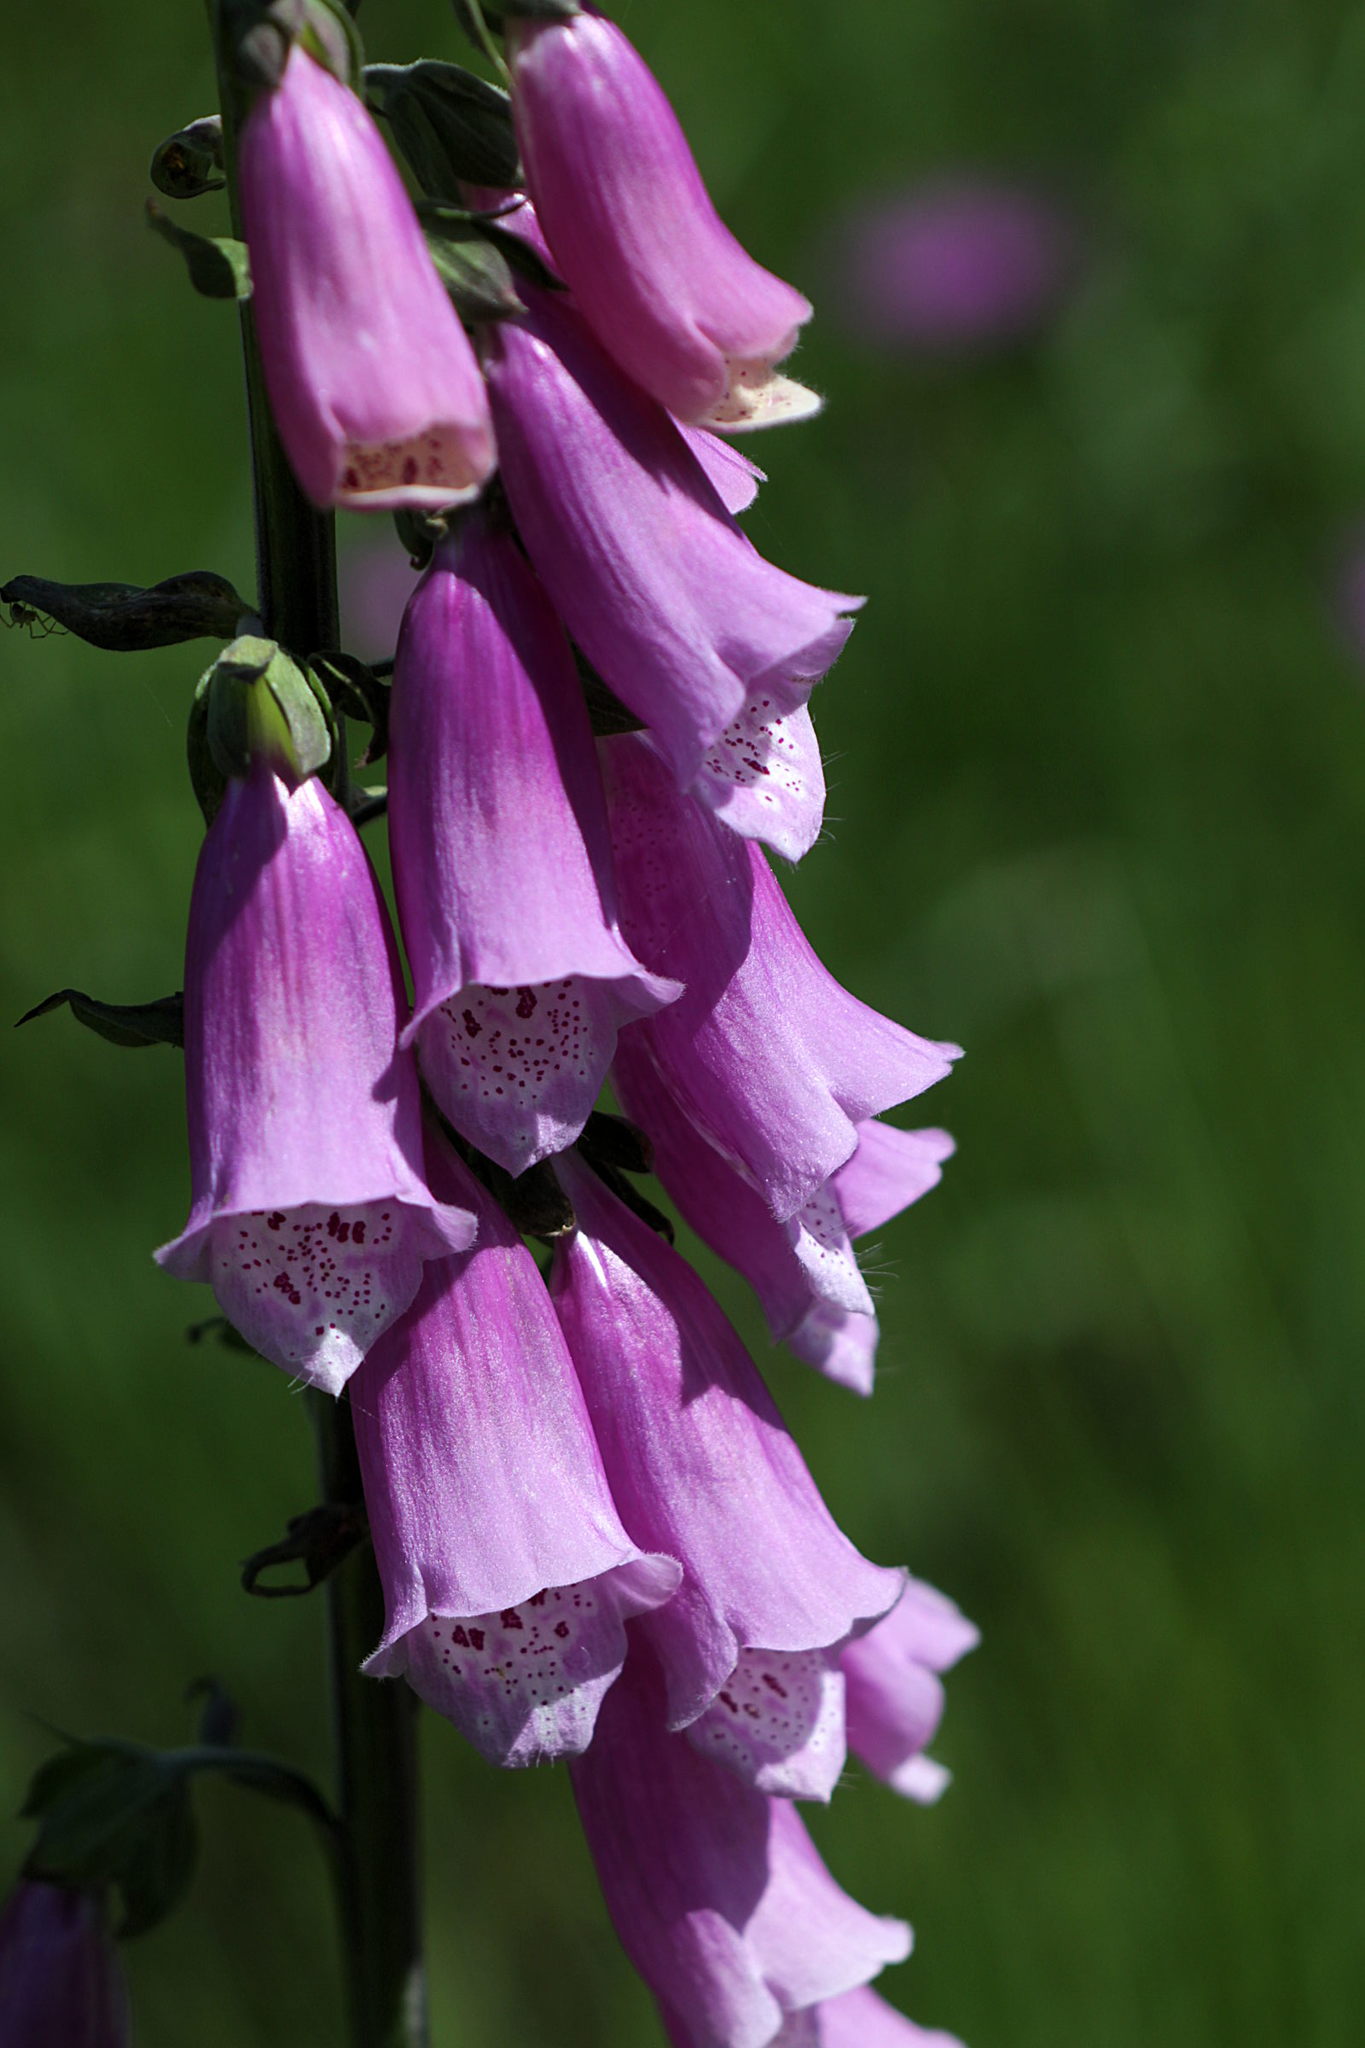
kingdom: Plantae
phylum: Tracheophyta
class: Magnoliopsida
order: Lamiales
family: Plantaginaceae
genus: Digitalis
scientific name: Digitalis purpurea
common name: Foxglove
